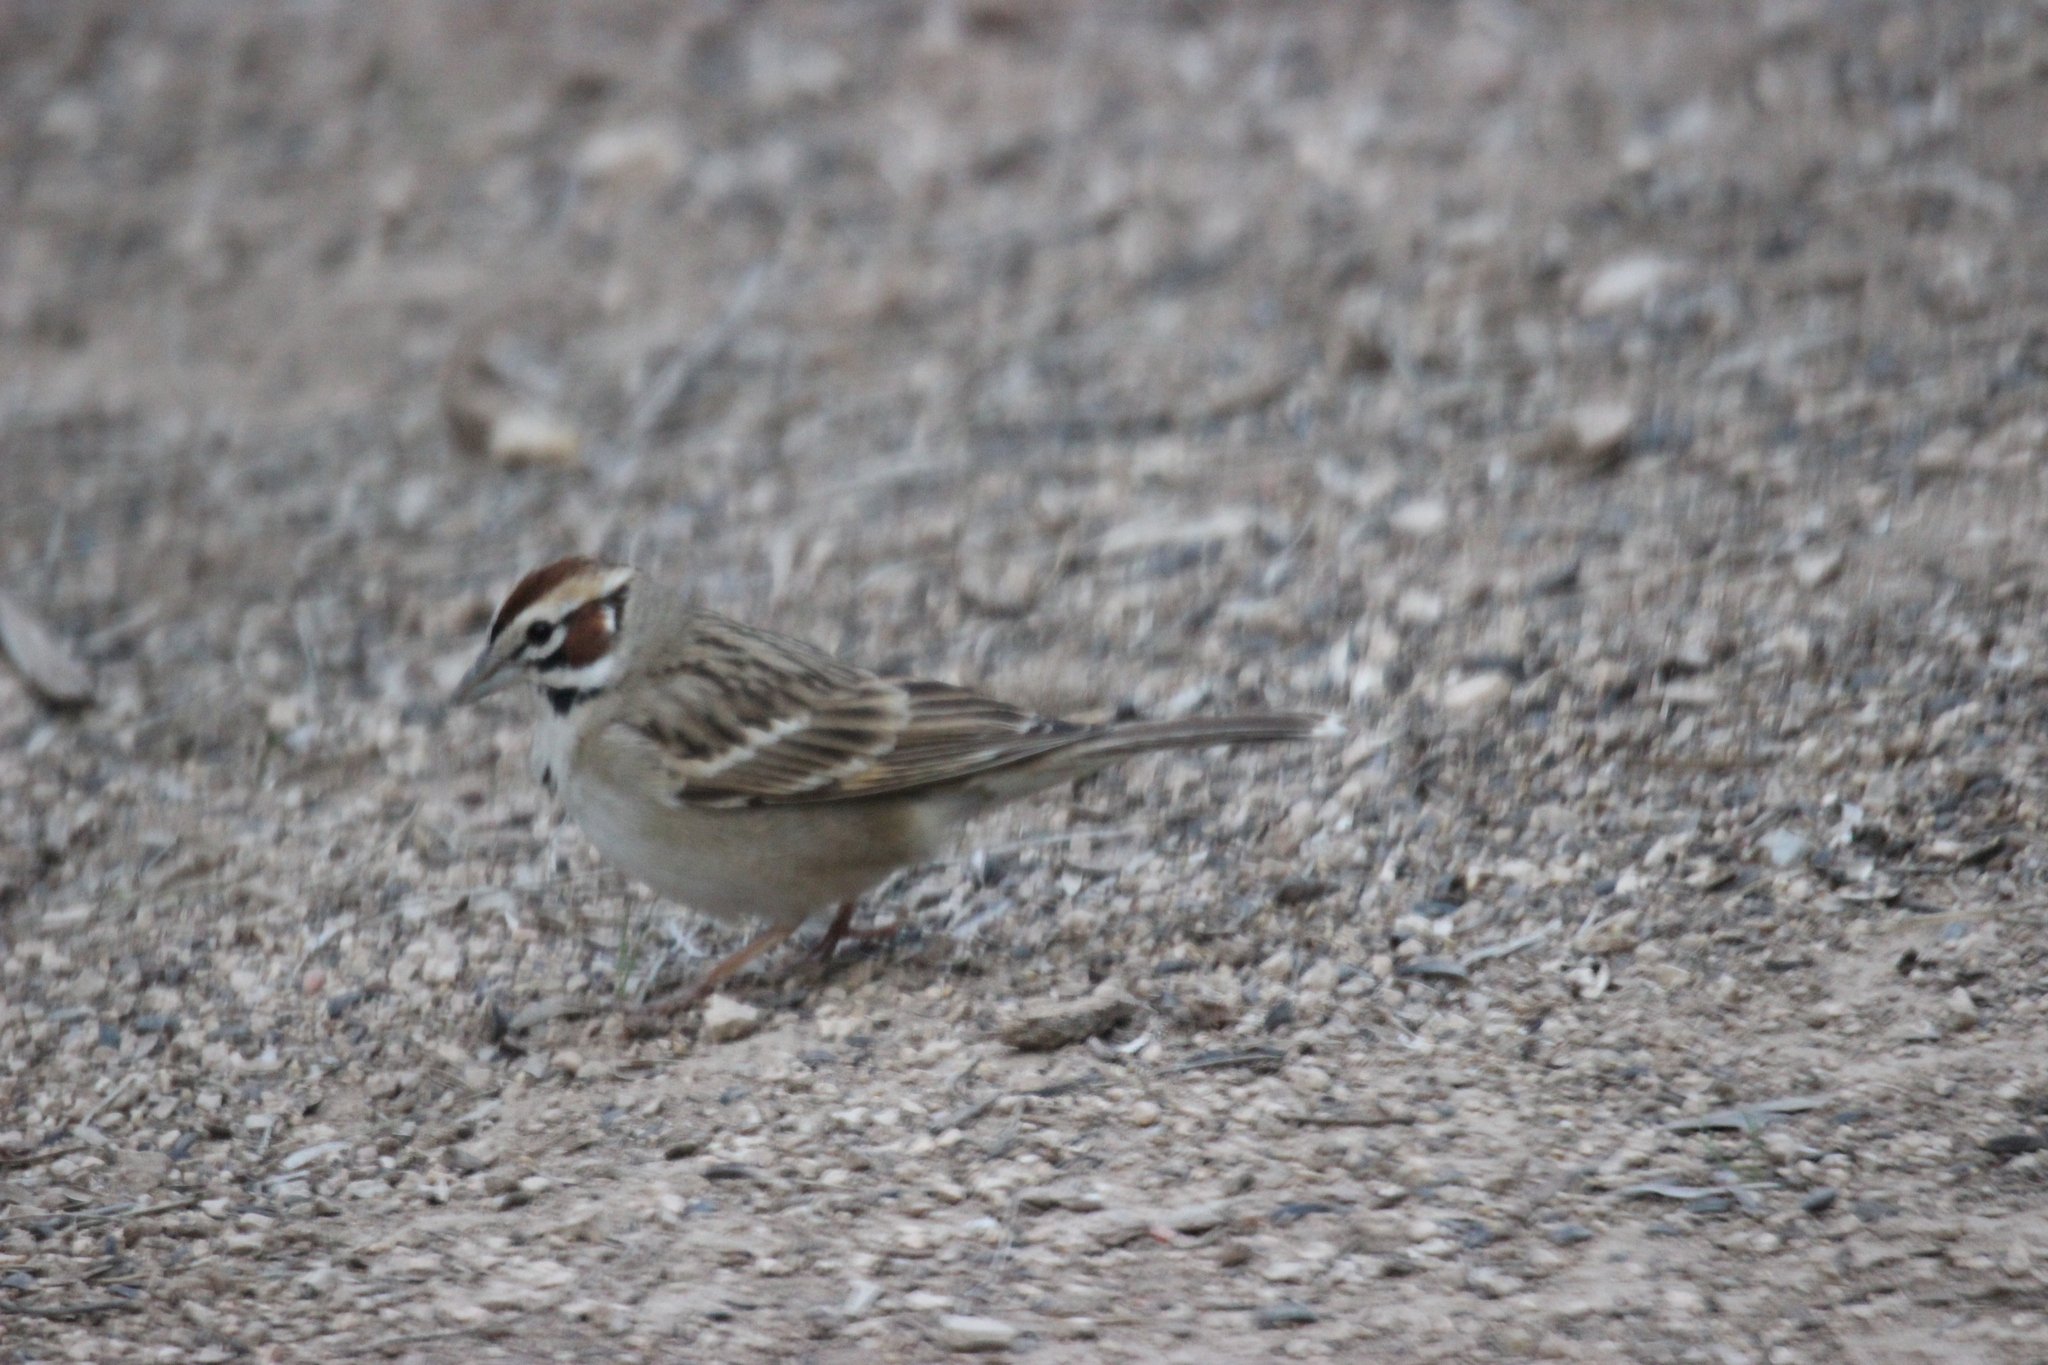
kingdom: Animalia
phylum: Chordata
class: Aves
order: Passeriformes
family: Passerellidae
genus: Chondestes
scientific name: Chondestes grammacus
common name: Lark sparrow
